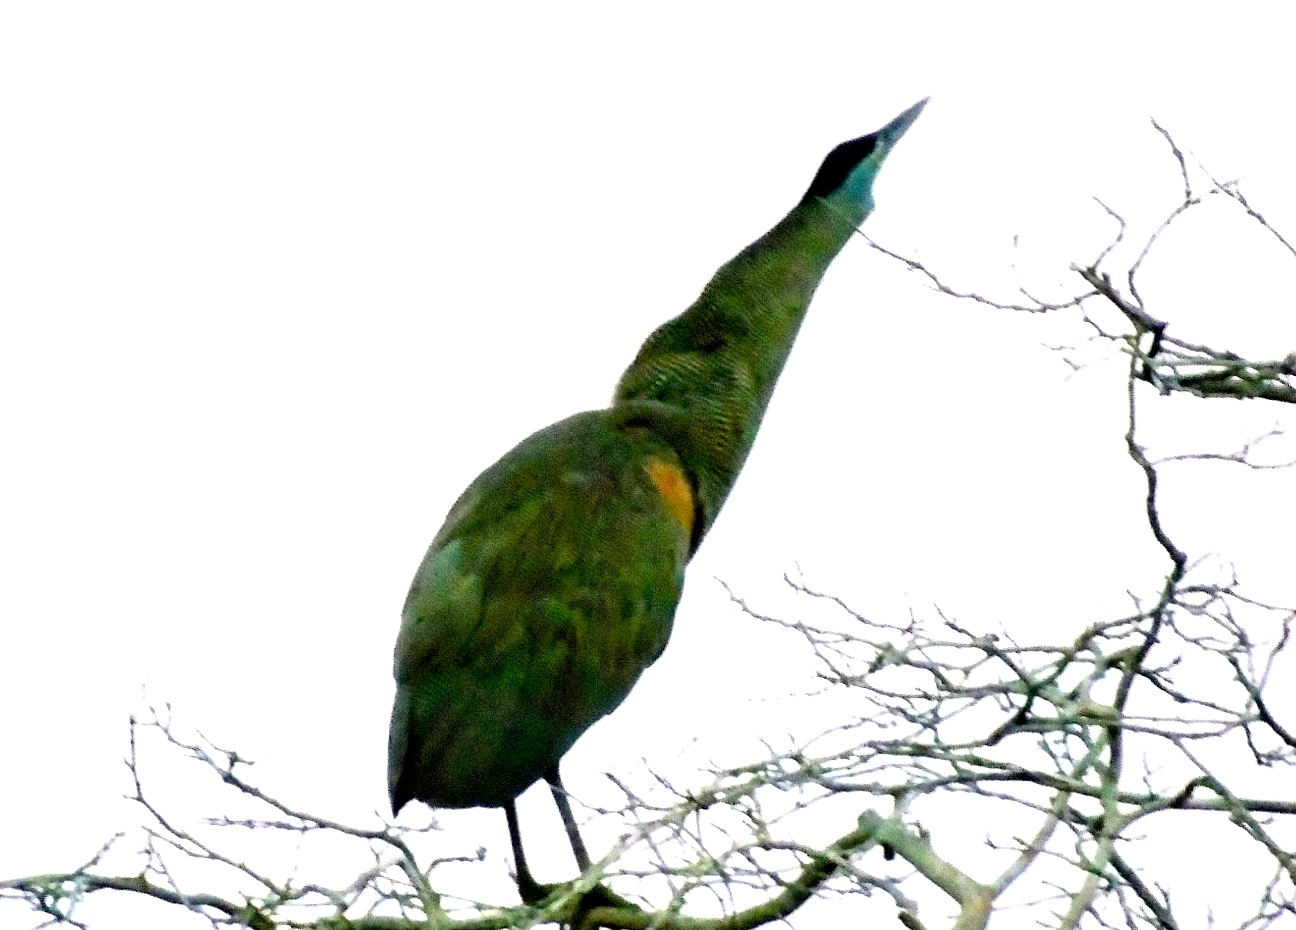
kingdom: Animalia
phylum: Chordata
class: Aves
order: Pelecaniformes
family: Ardeidae
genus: Tigrisoma
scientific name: Tigrisoma mexicanum
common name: Bare-throated tiger-heron
